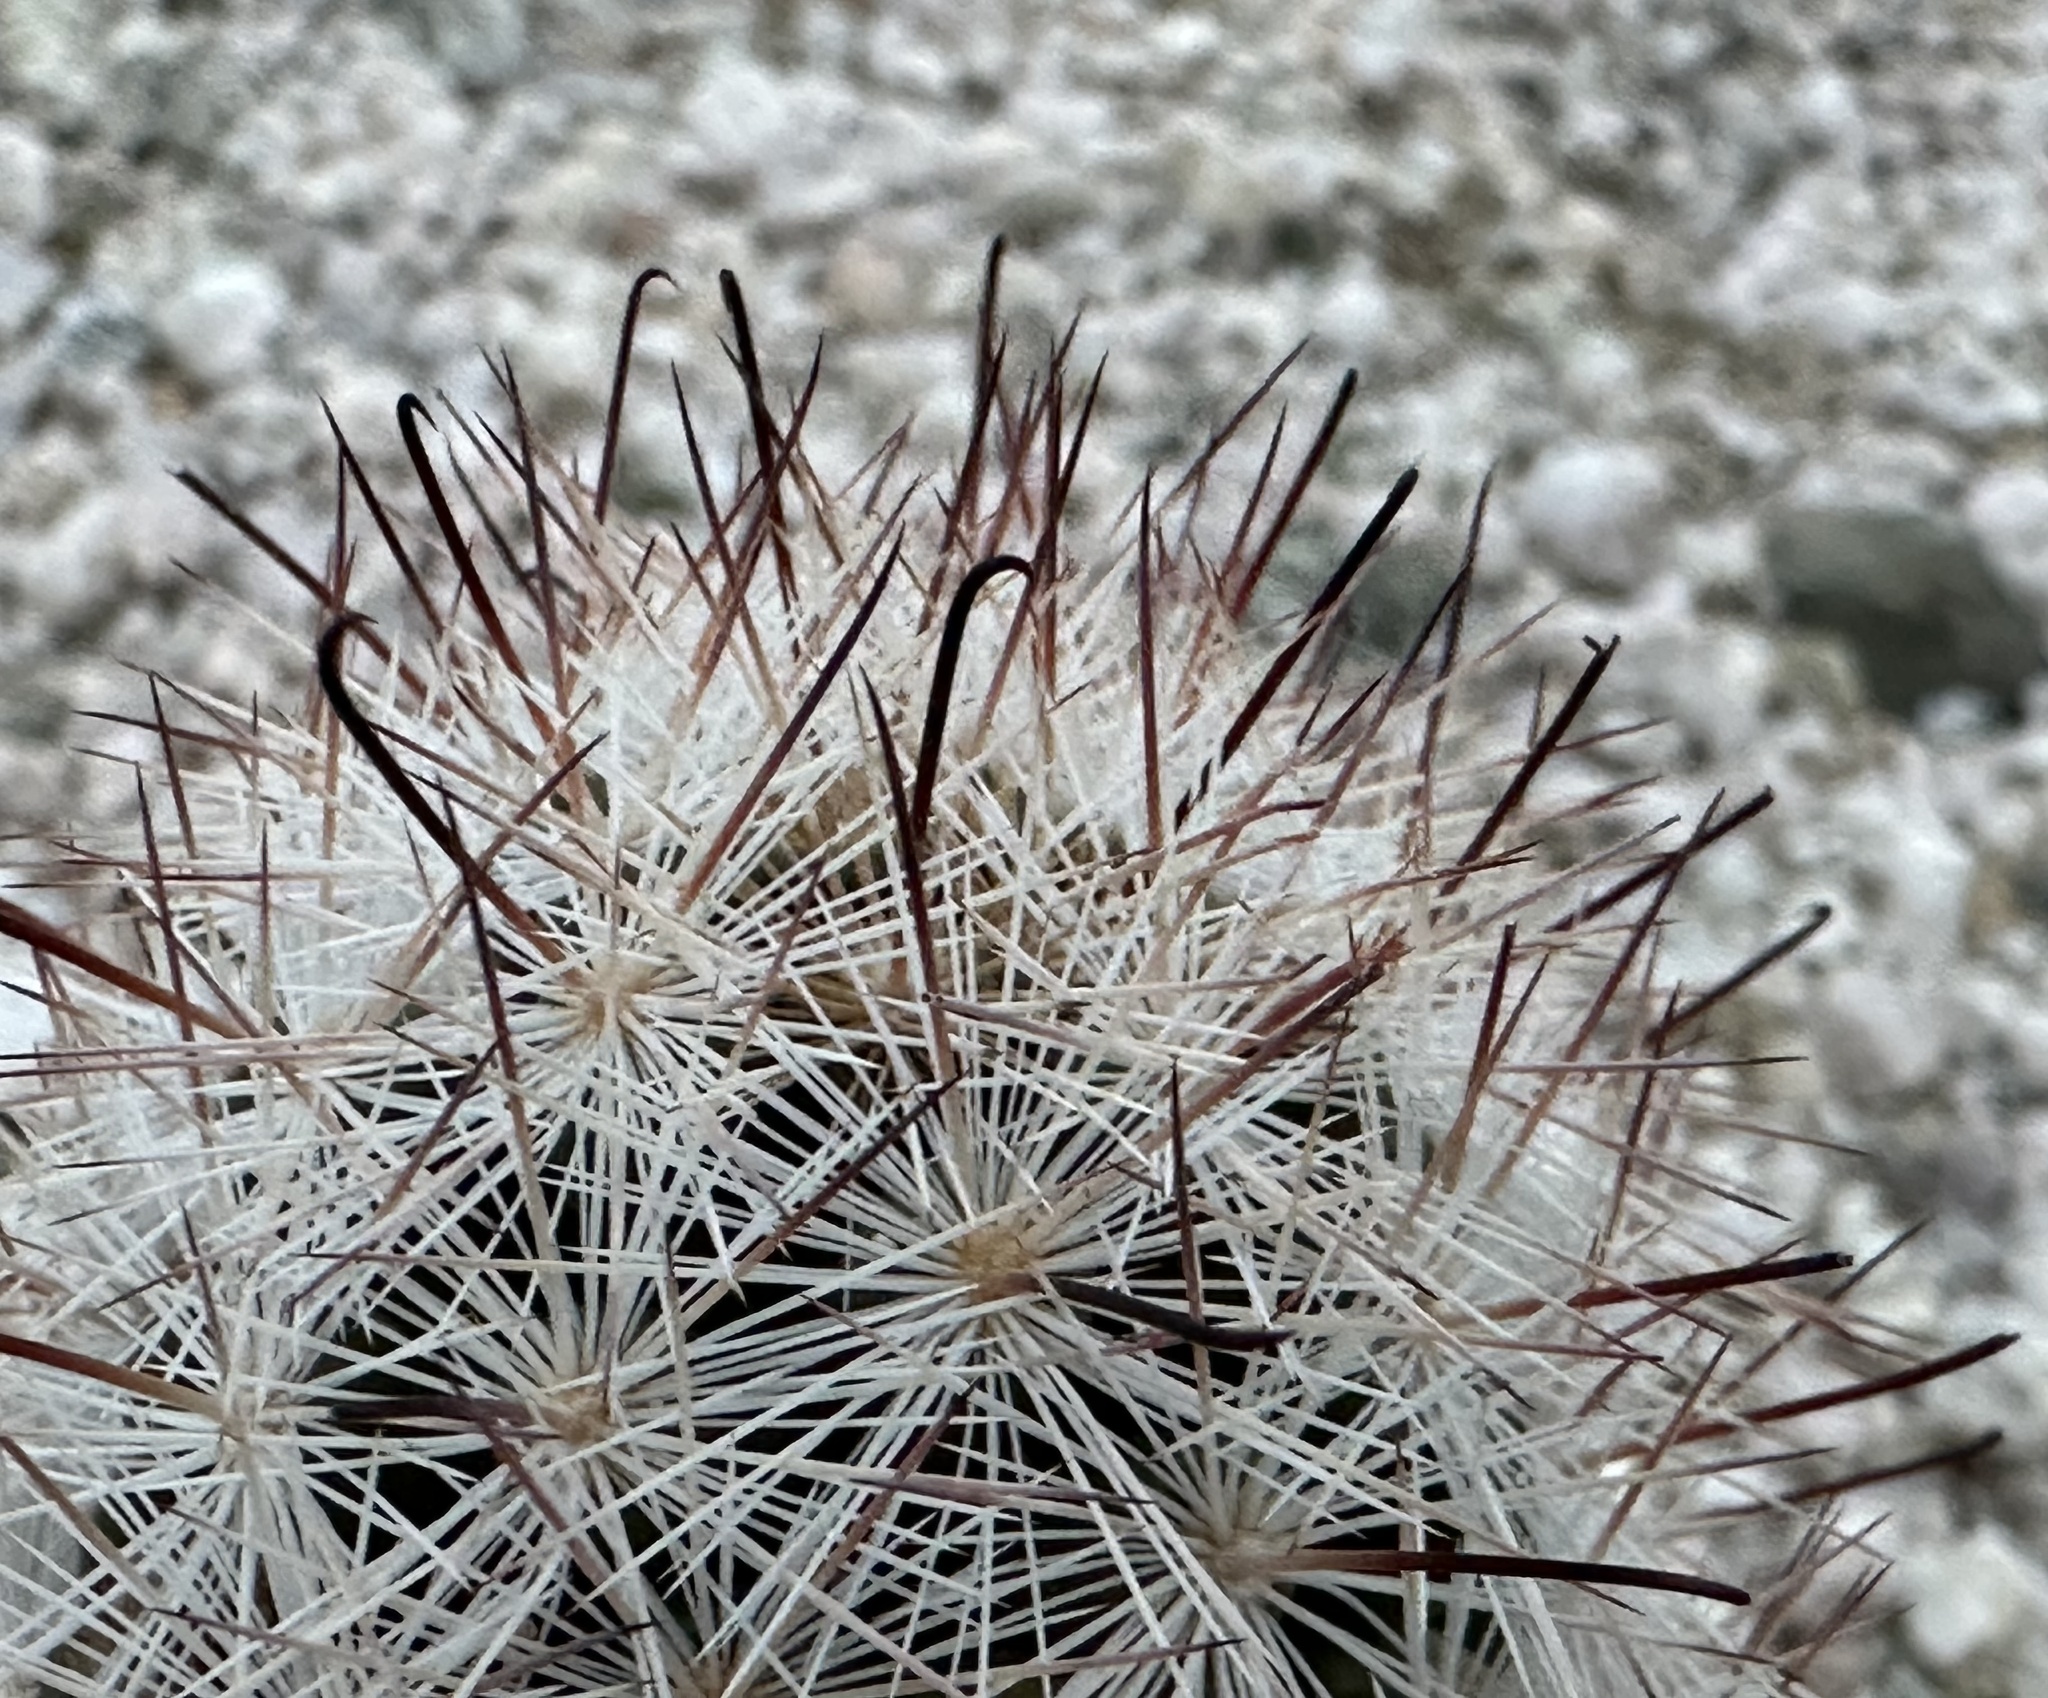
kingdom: Plantae
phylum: Tracheophyta
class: Magnoliopsida
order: Caryophyllales
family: Cactaceae
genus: Cochemiea
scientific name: Cochemiea tetrancistra
